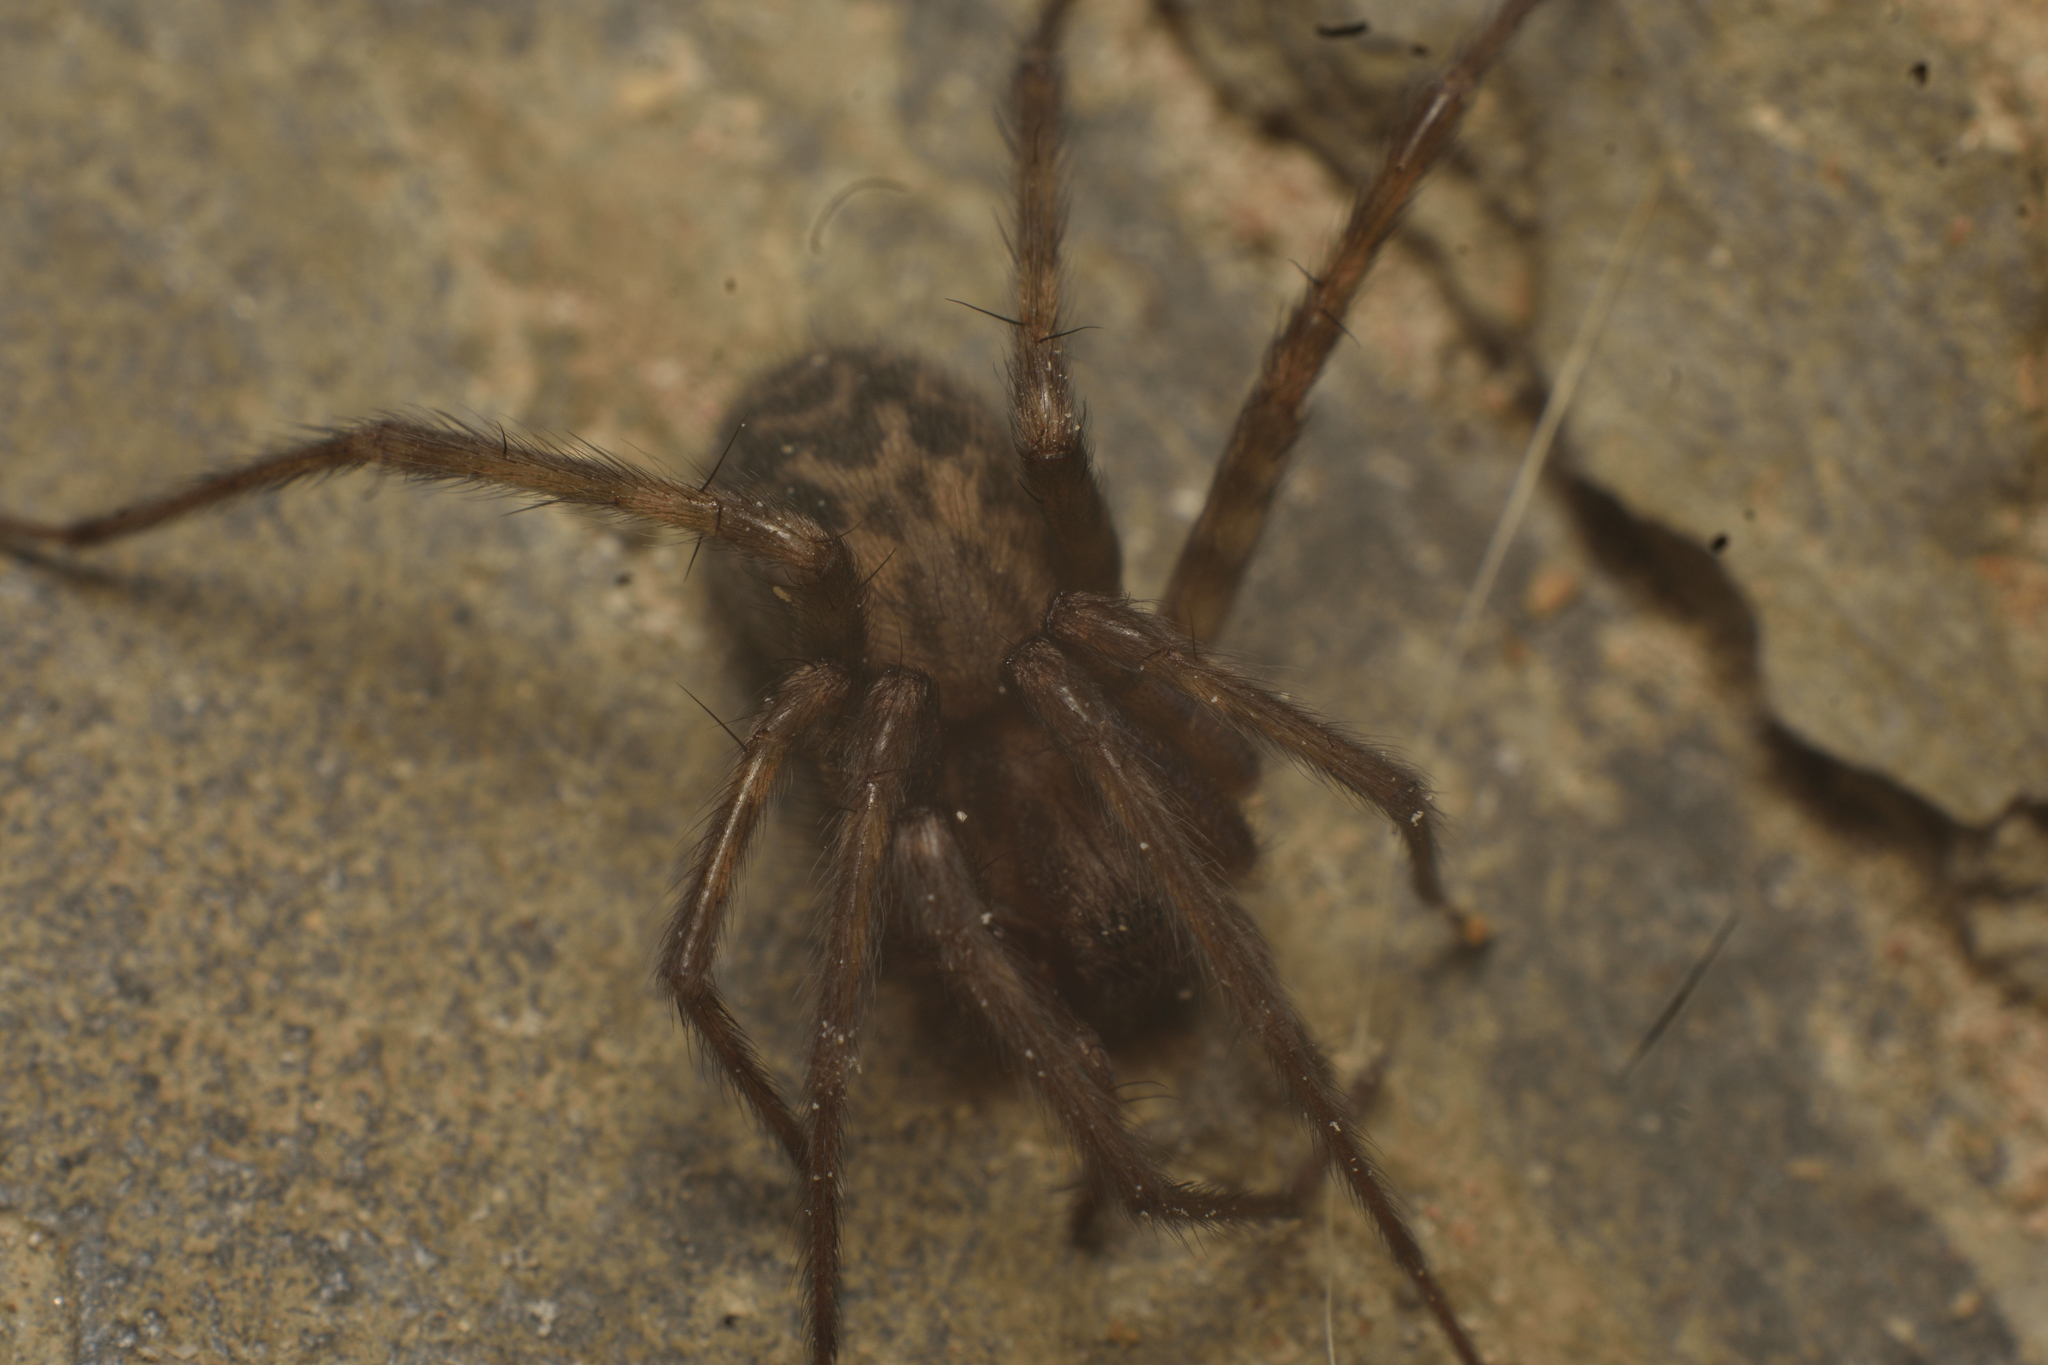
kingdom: Animalia
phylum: Arthropoda
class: Arachnida
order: Araneae
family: Agelenidae
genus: Tegenaria
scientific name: Tegenaria domestica
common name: Barn funnel weaver
